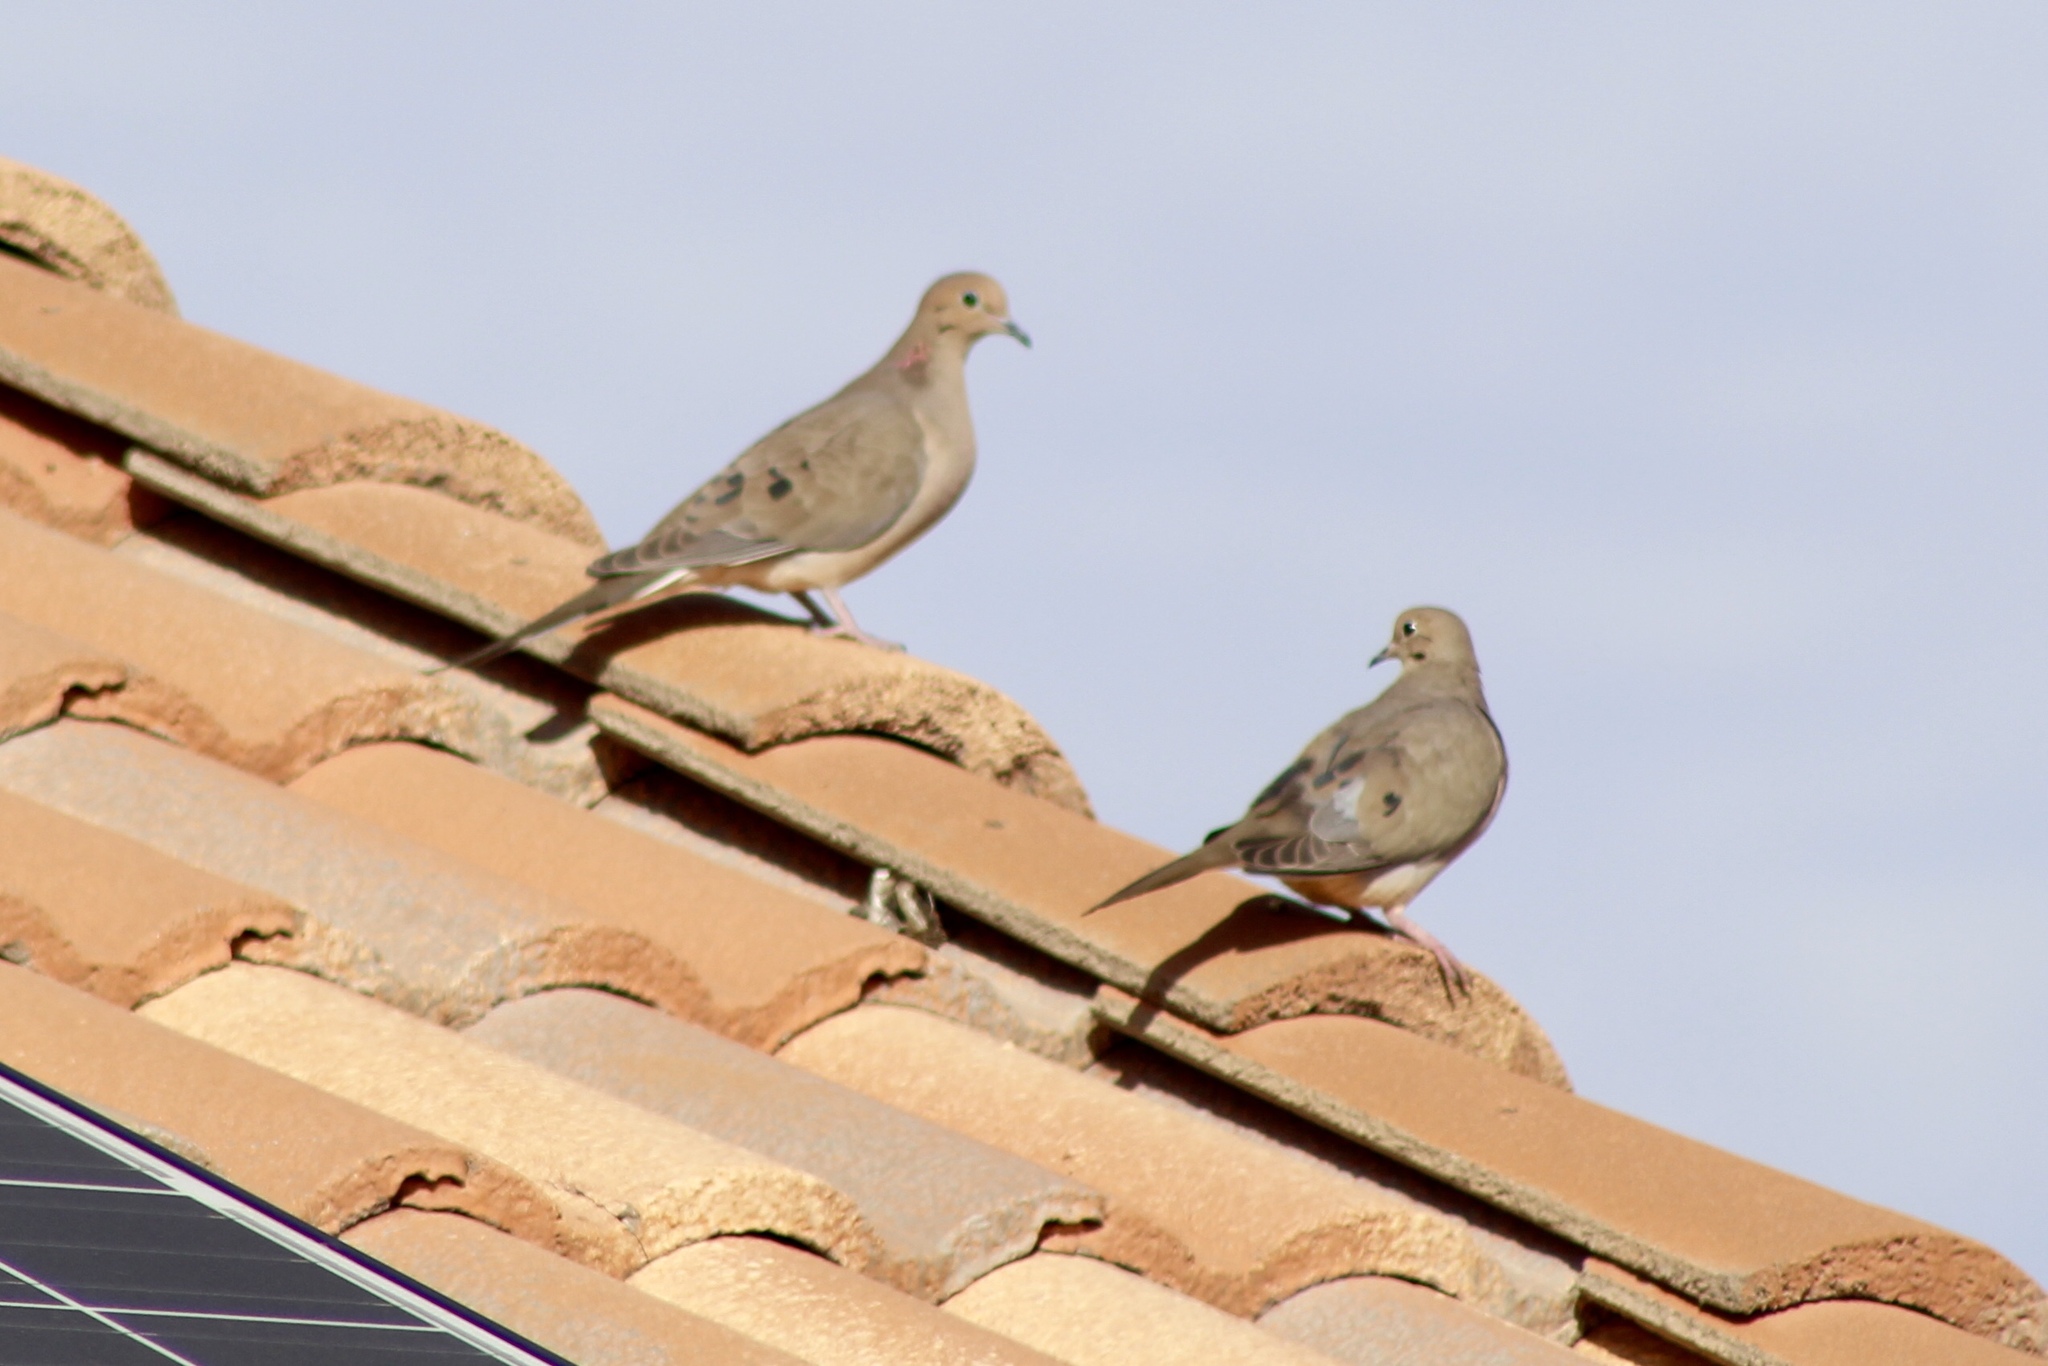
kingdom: Animalia
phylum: Chordata
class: Aves
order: Columbiformes
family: Columbidae
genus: Zenaida
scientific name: Zenaida macroura
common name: Mourning dove
